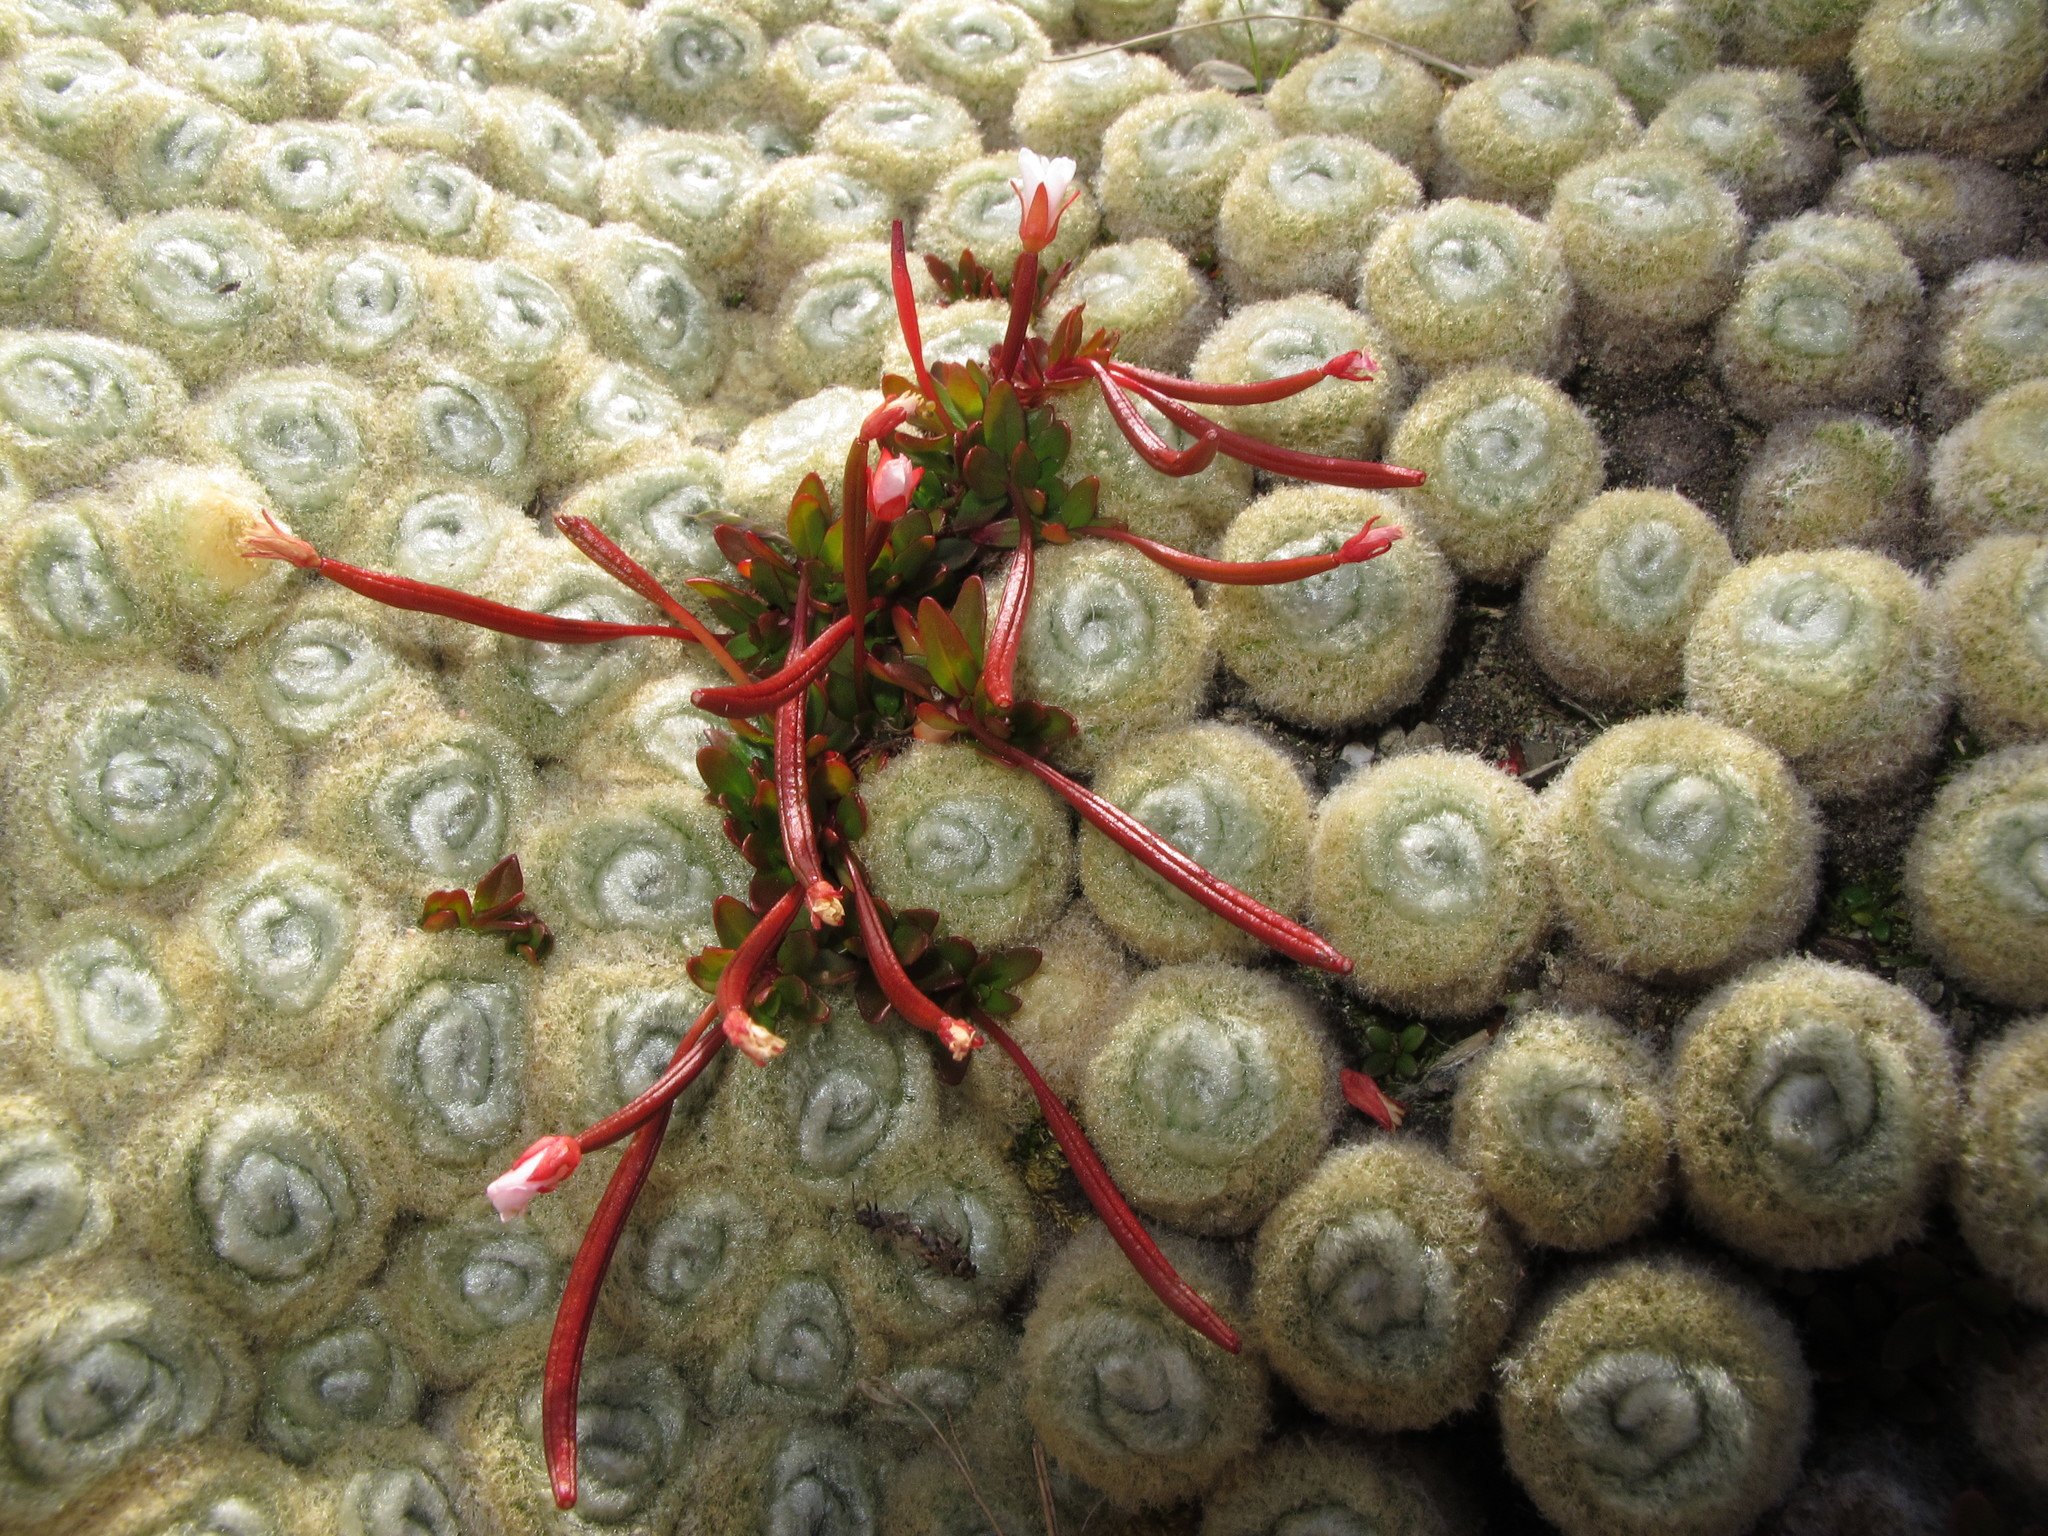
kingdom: Plantae
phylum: Tracheophyta
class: Magnoliopsida
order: Asterales
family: Asteraceae
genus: Haastia
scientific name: Haastia pulvinaris
